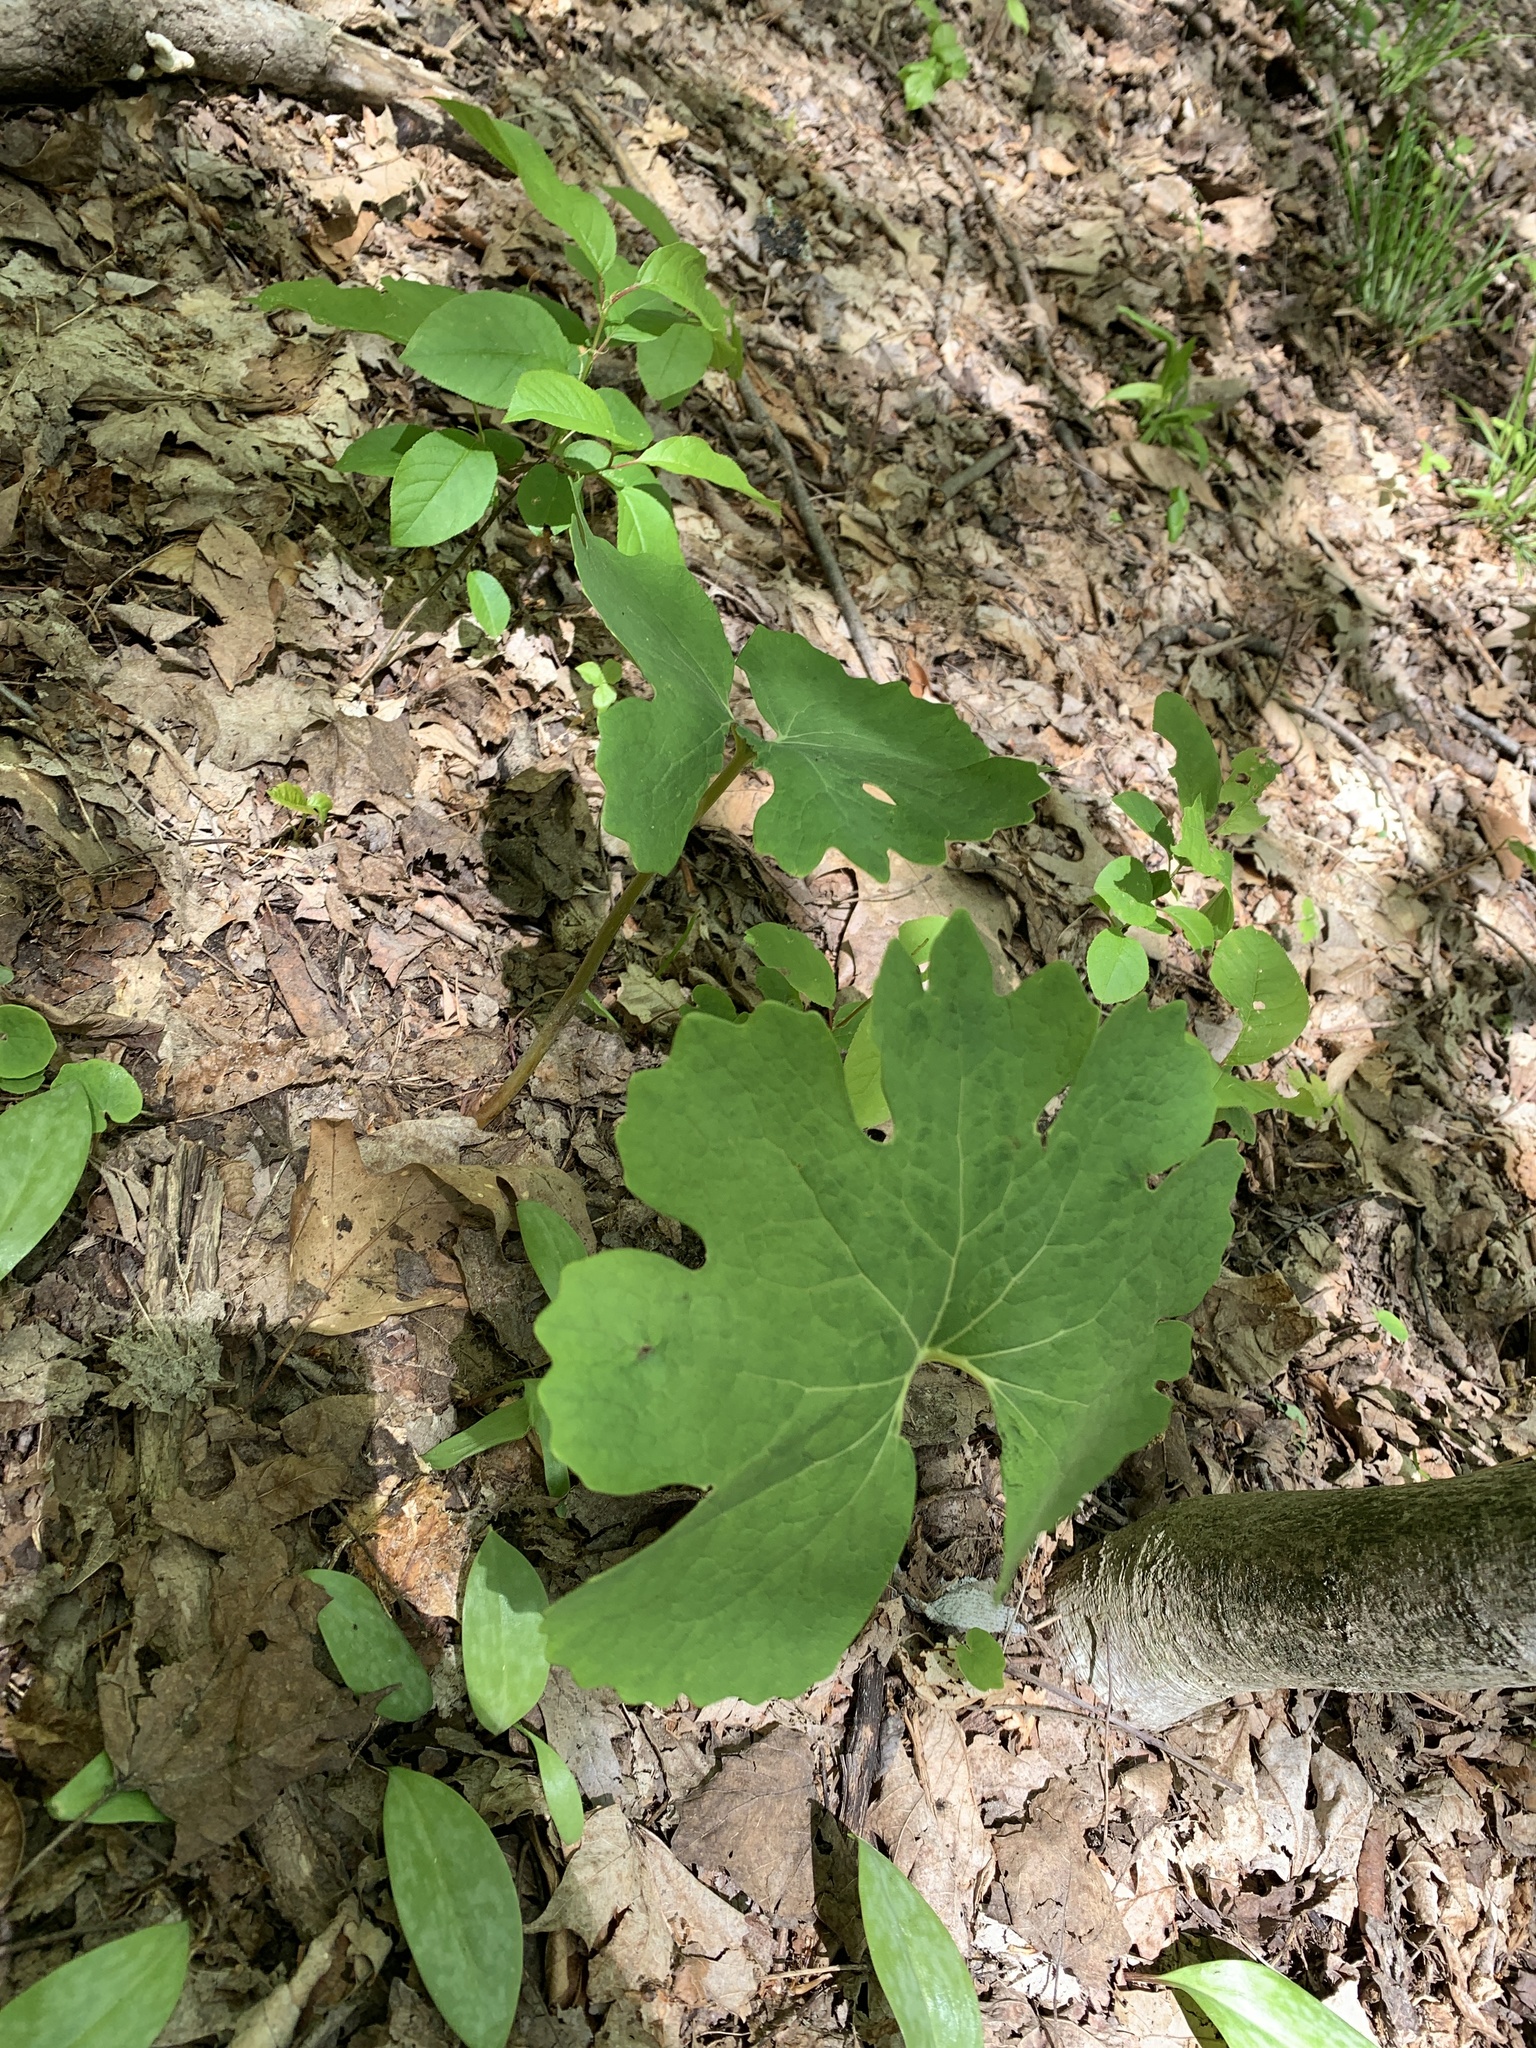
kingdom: Plantae
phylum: Tracheophyta
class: Magnoliopsida
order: Ranunculales
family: Papaveraceae
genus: Sanguinaria
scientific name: Sanguinaria canadensis
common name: Bloodroot
